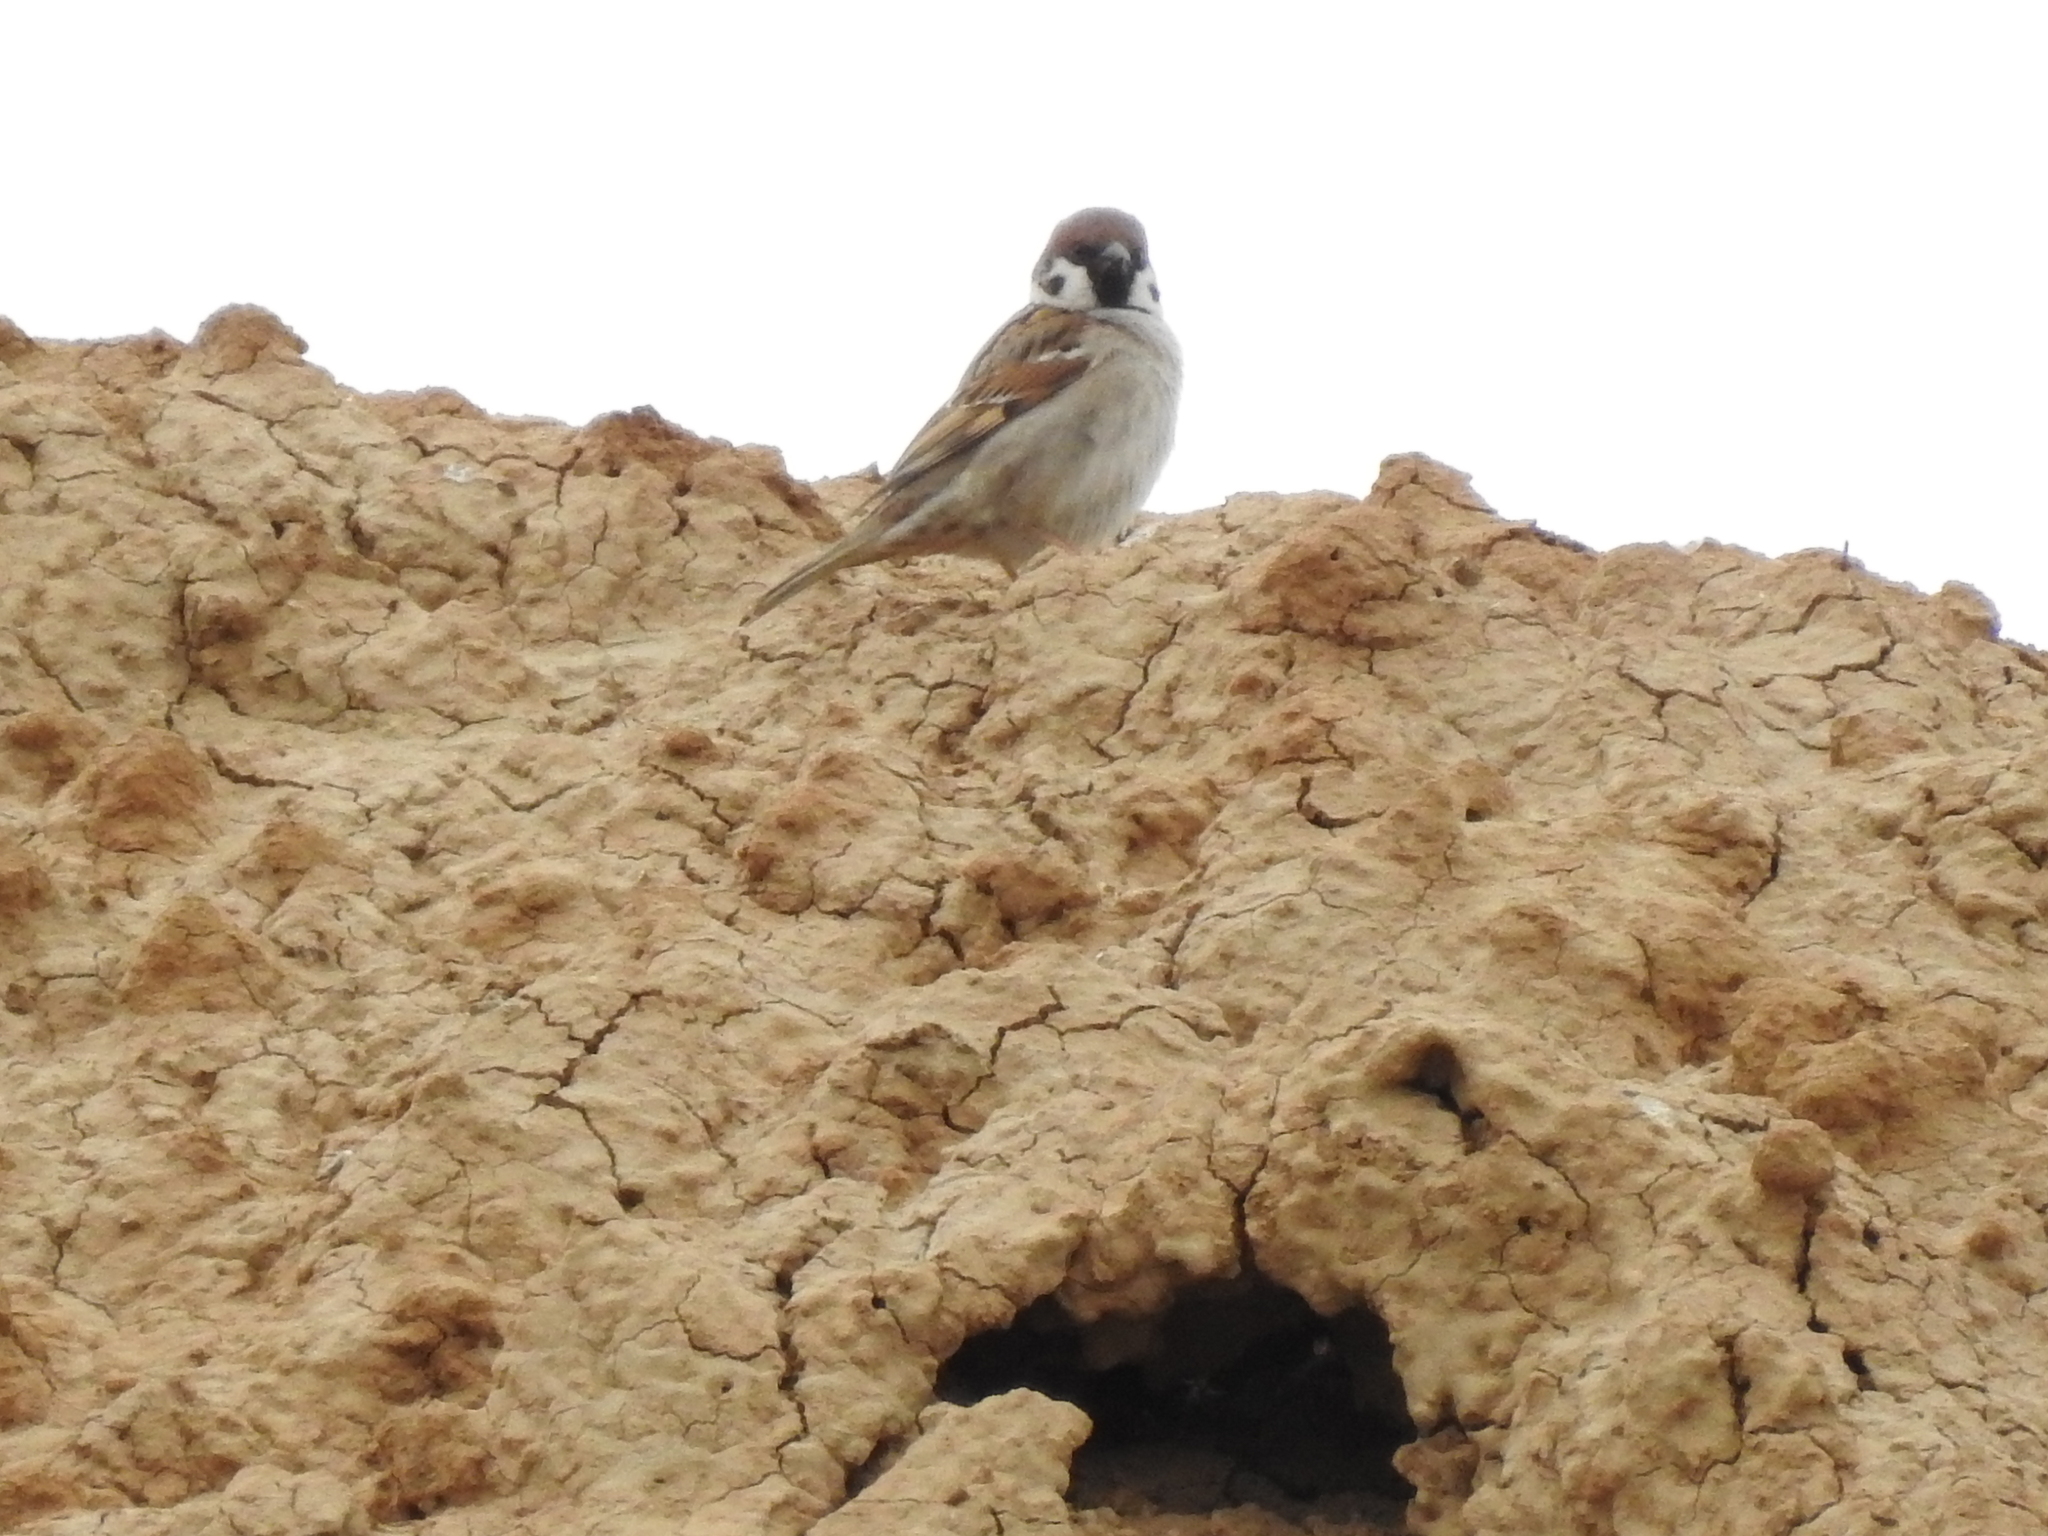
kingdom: Animalia
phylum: Chordata
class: Aves
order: Passeriformes
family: Passeridae
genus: Passer
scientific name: Passer montanus
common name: Eurasian tree sparrow
